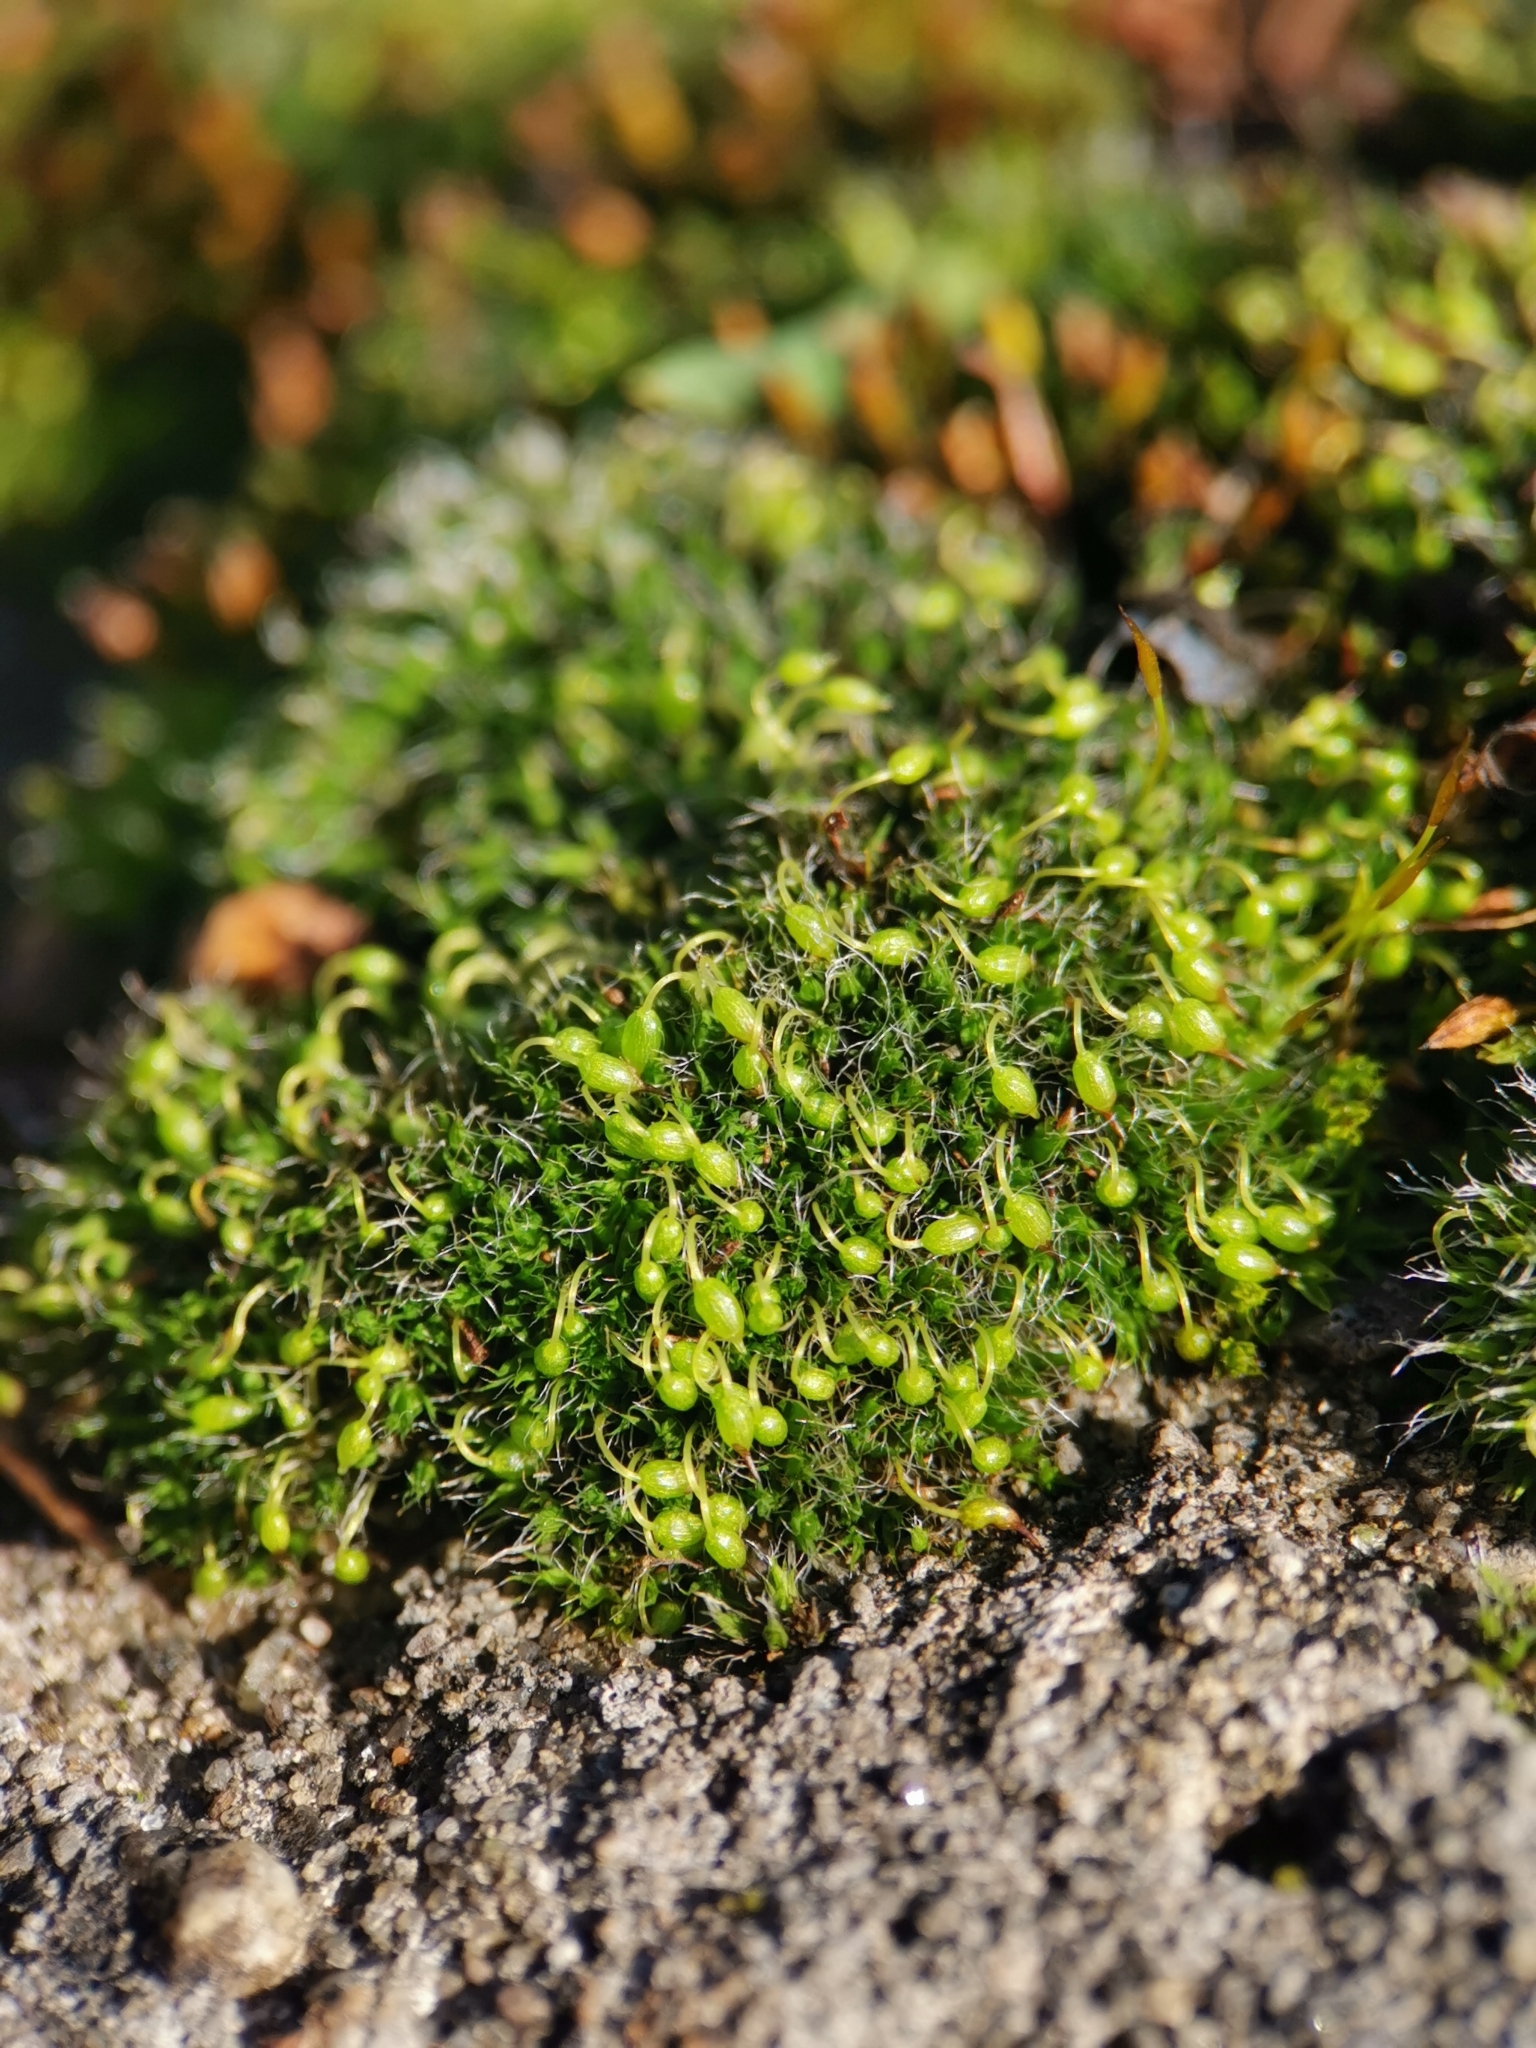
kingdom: Plantae
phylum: Bryophyta
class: Bryopsida
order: Grimmiales
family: Grimmiaceae
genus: Grimmia
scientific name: Grimmia pulvinata
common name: Grey-cushioned grimmia
